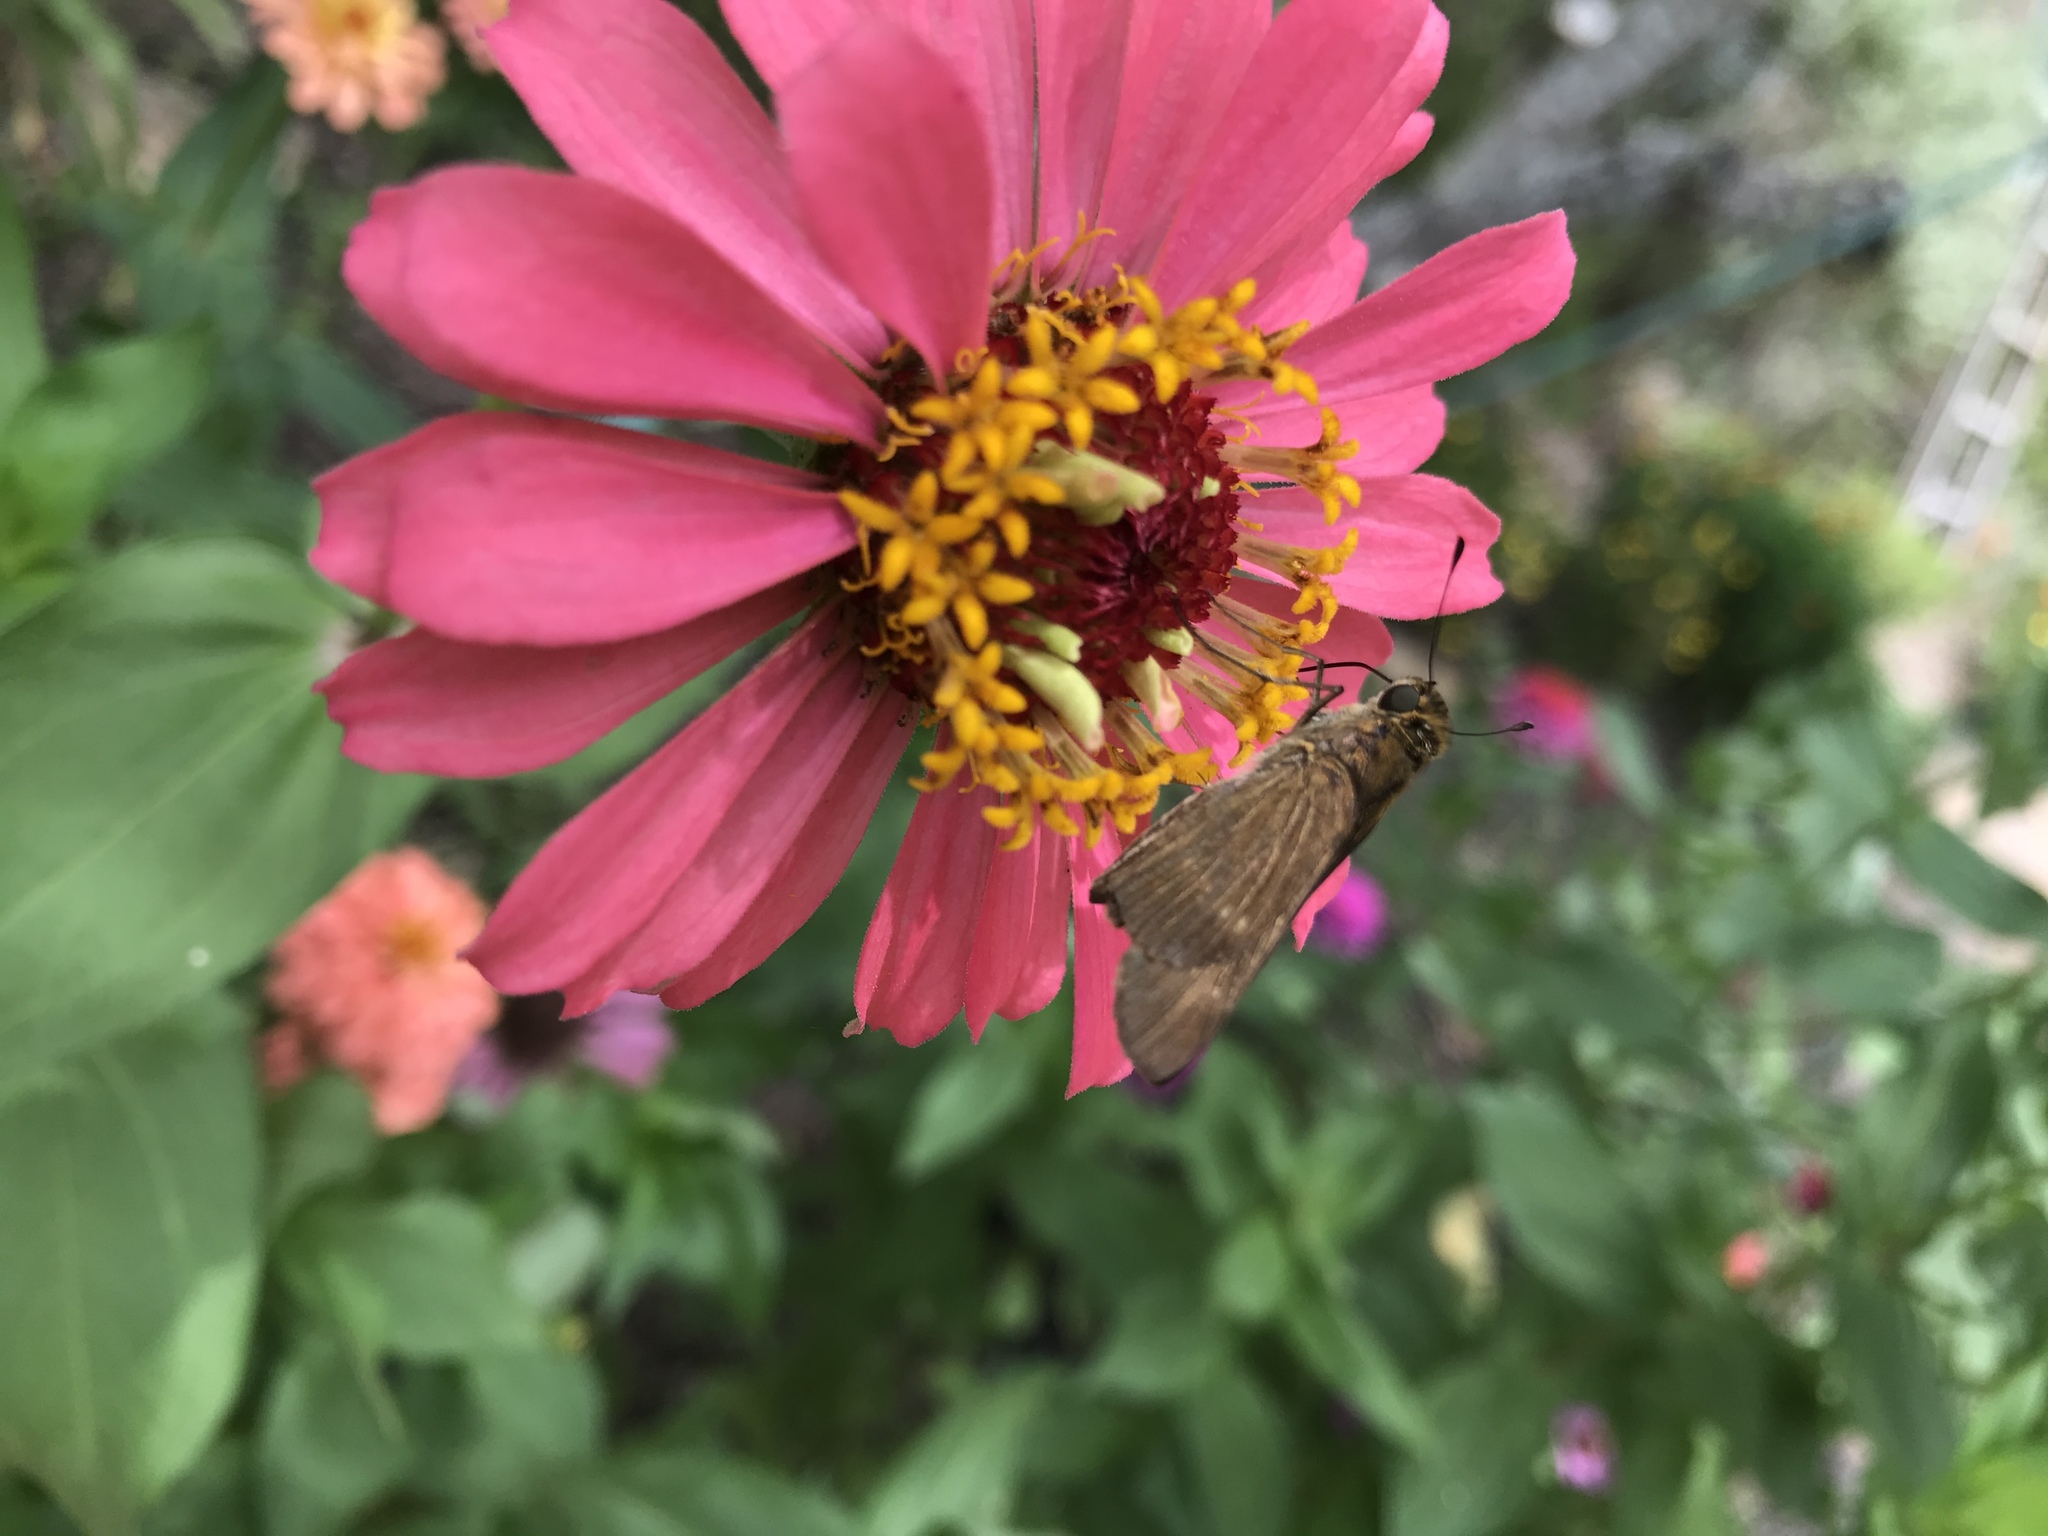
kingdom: Animalia
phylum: Arthropoda
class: Insecta
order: Lepidoptera
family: Hesperiidae
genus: Panoquina
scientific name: Panoquina ocola
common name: Ocola skipper
